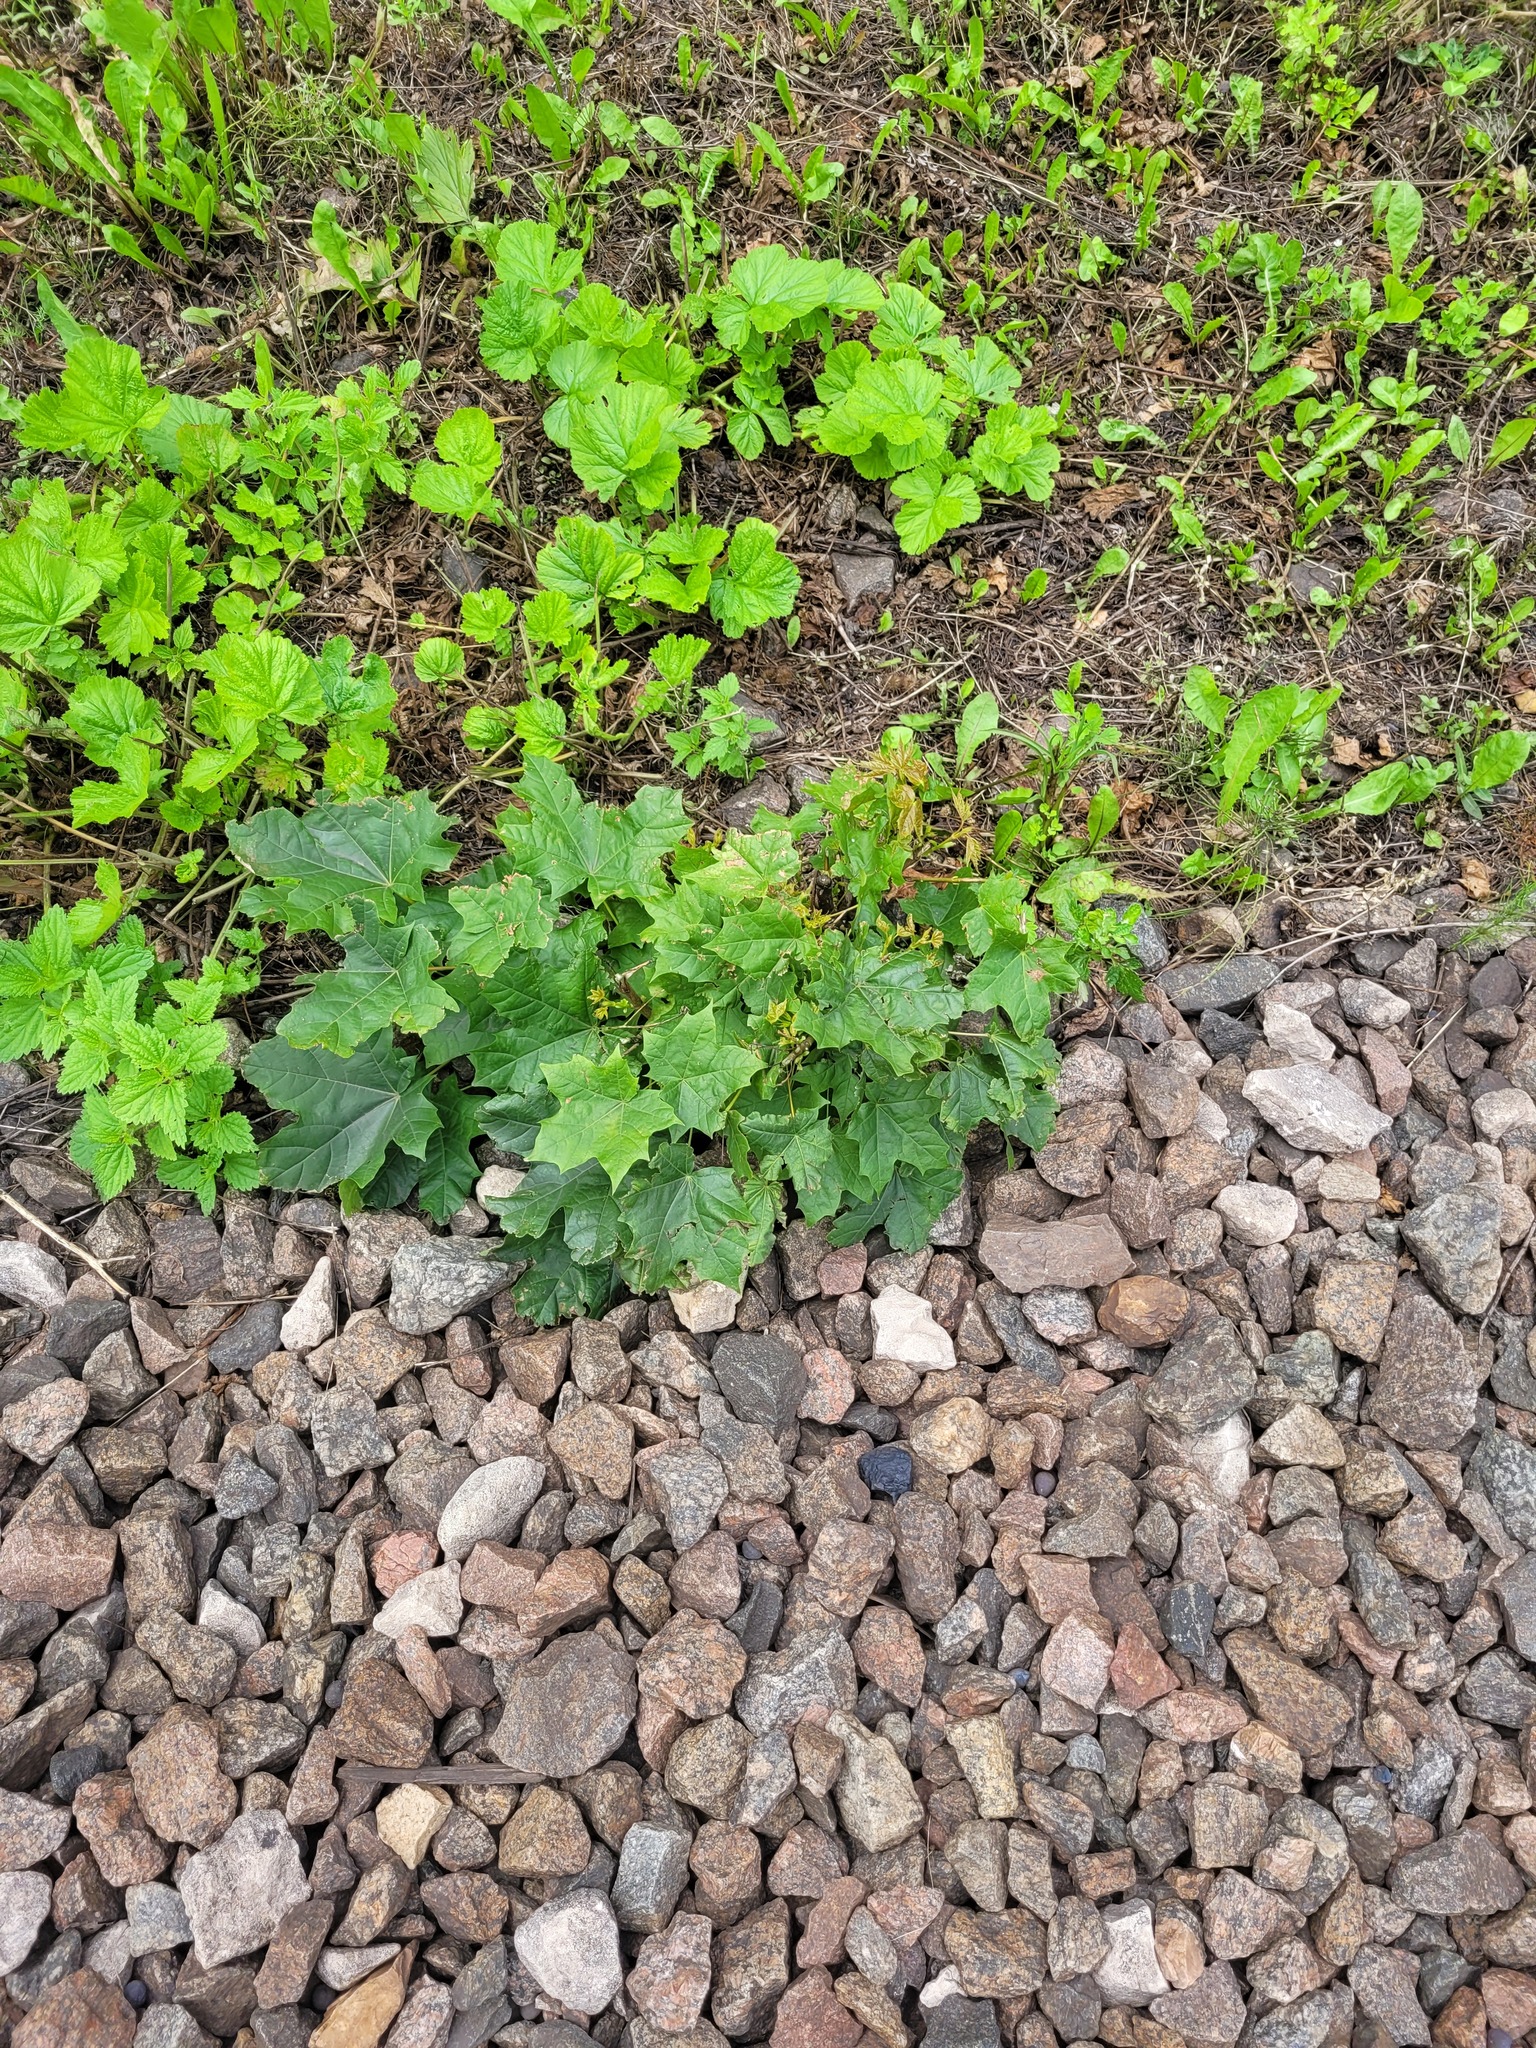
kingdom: Plantae
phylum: Tracheophyta
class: Magnoliopsida
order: Sapindales
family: Sapindaceae
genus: Acer
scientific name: Acer platanoides
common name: Norway maple
